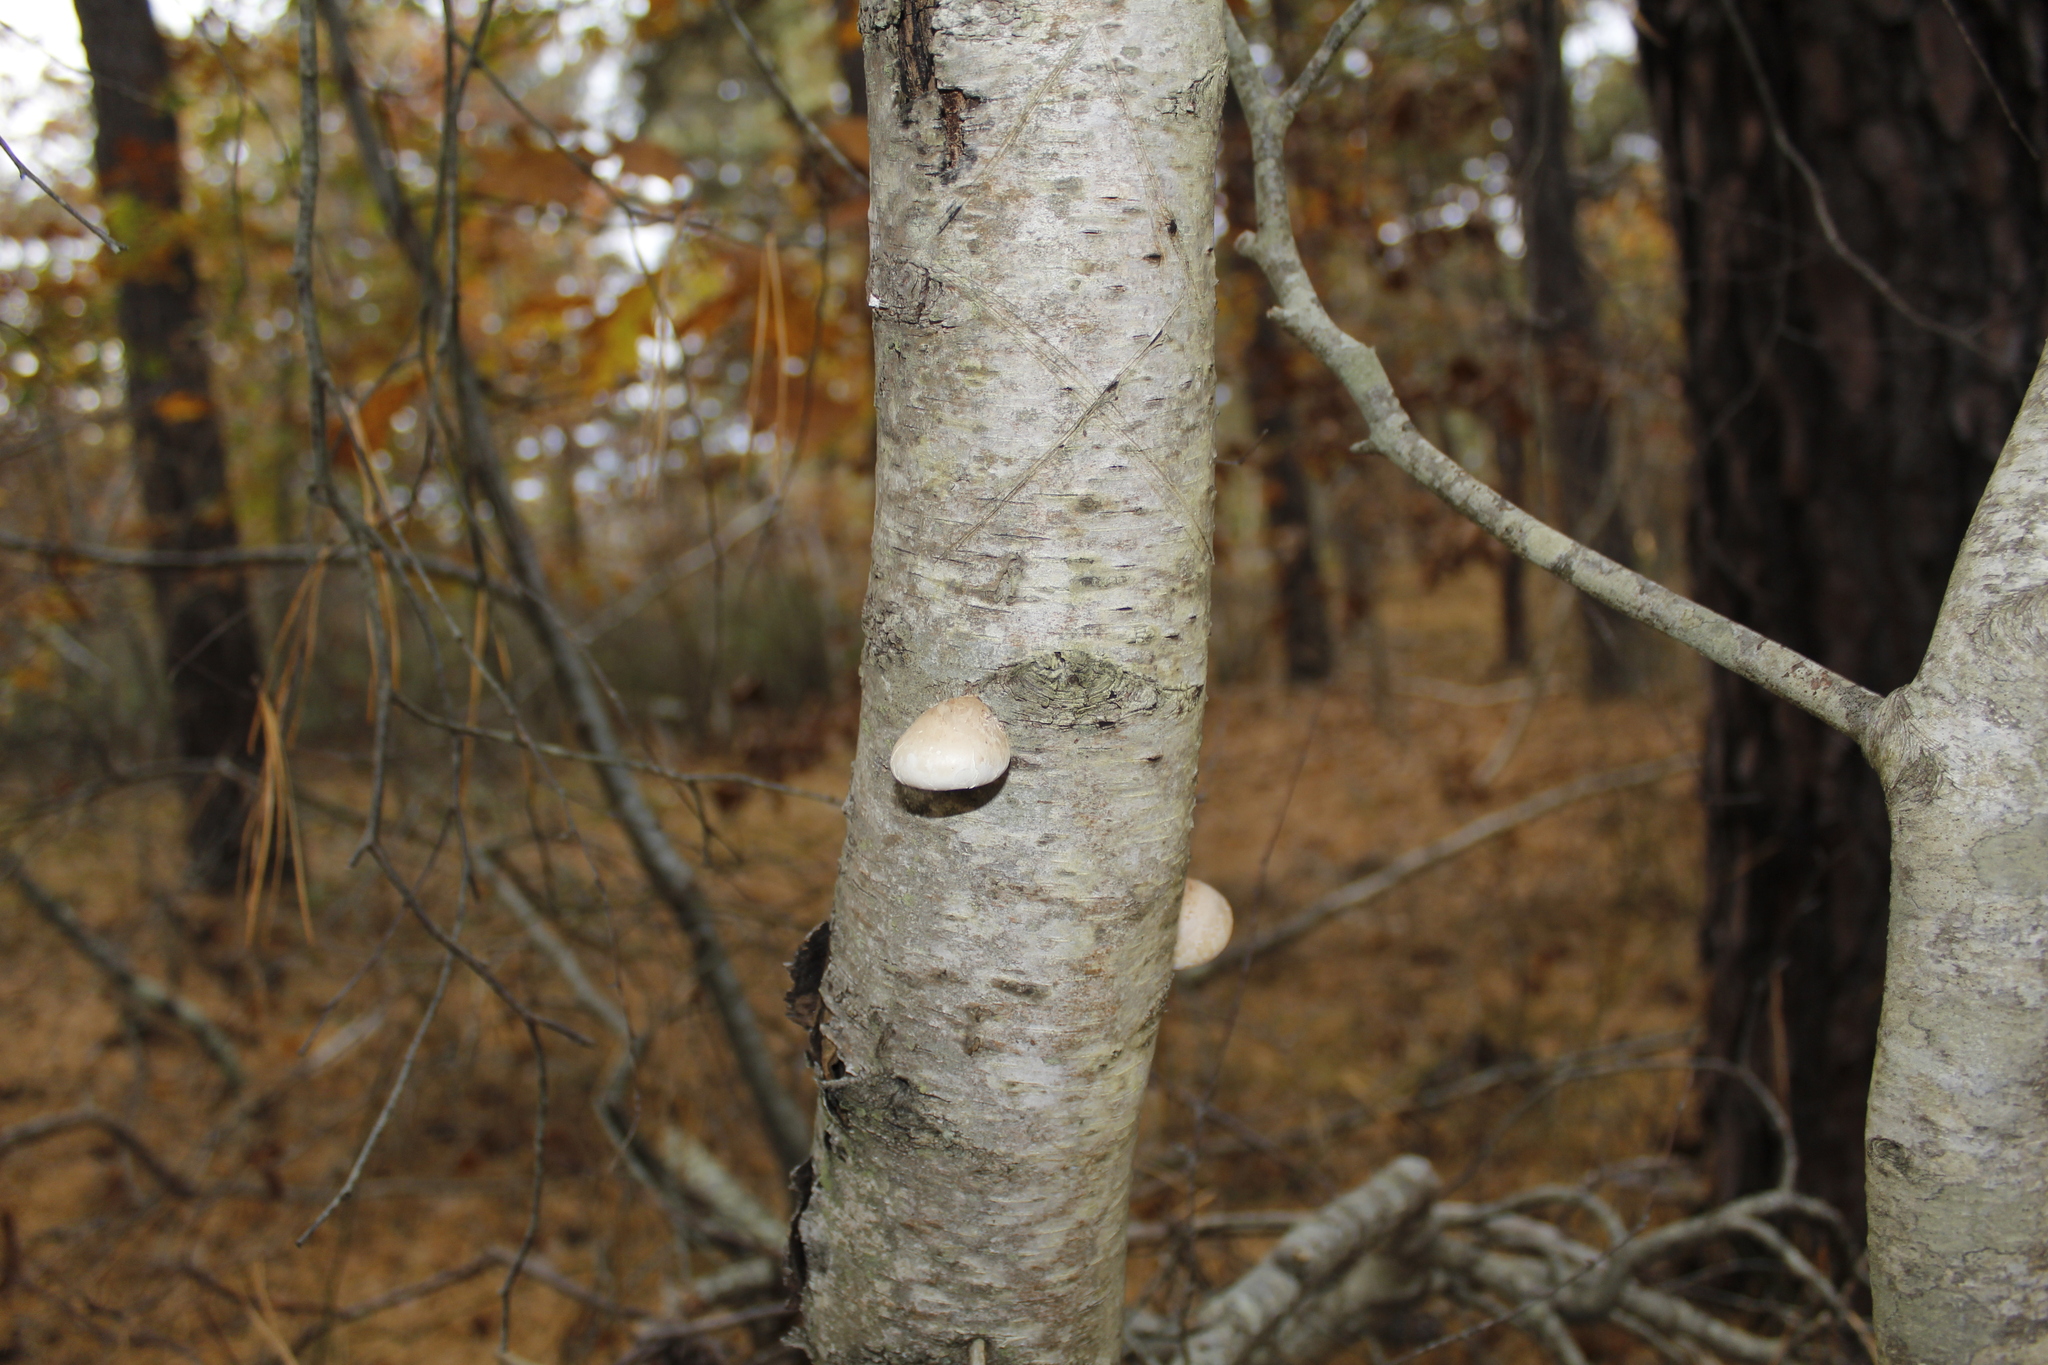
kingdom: Fungi
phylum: Basidiomycota
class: Agaricomycetes
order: Polyporales
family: Fomitopsidaceae
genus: Fomitopsis
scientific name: Fomitopsis betulina
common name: Birch polypore
